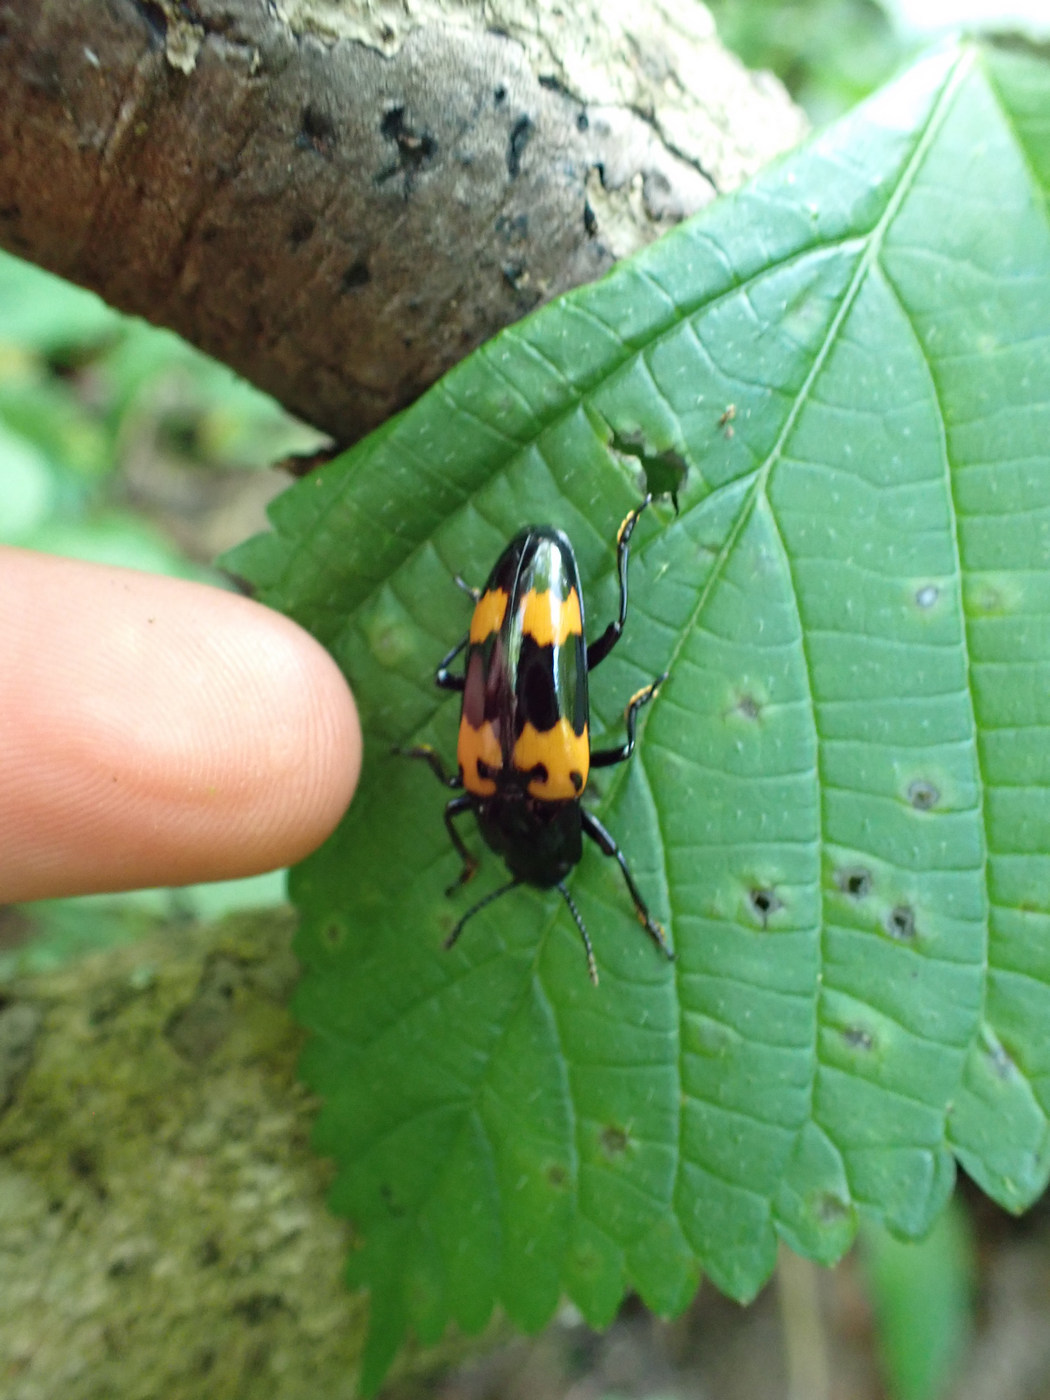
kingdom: Animalia
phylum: Arthropoda
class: Insecta
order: Coleoptera
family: Erotylidae
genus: Megalodacne
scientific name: Megalodacne heros
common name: Pleasing fungus beetle
